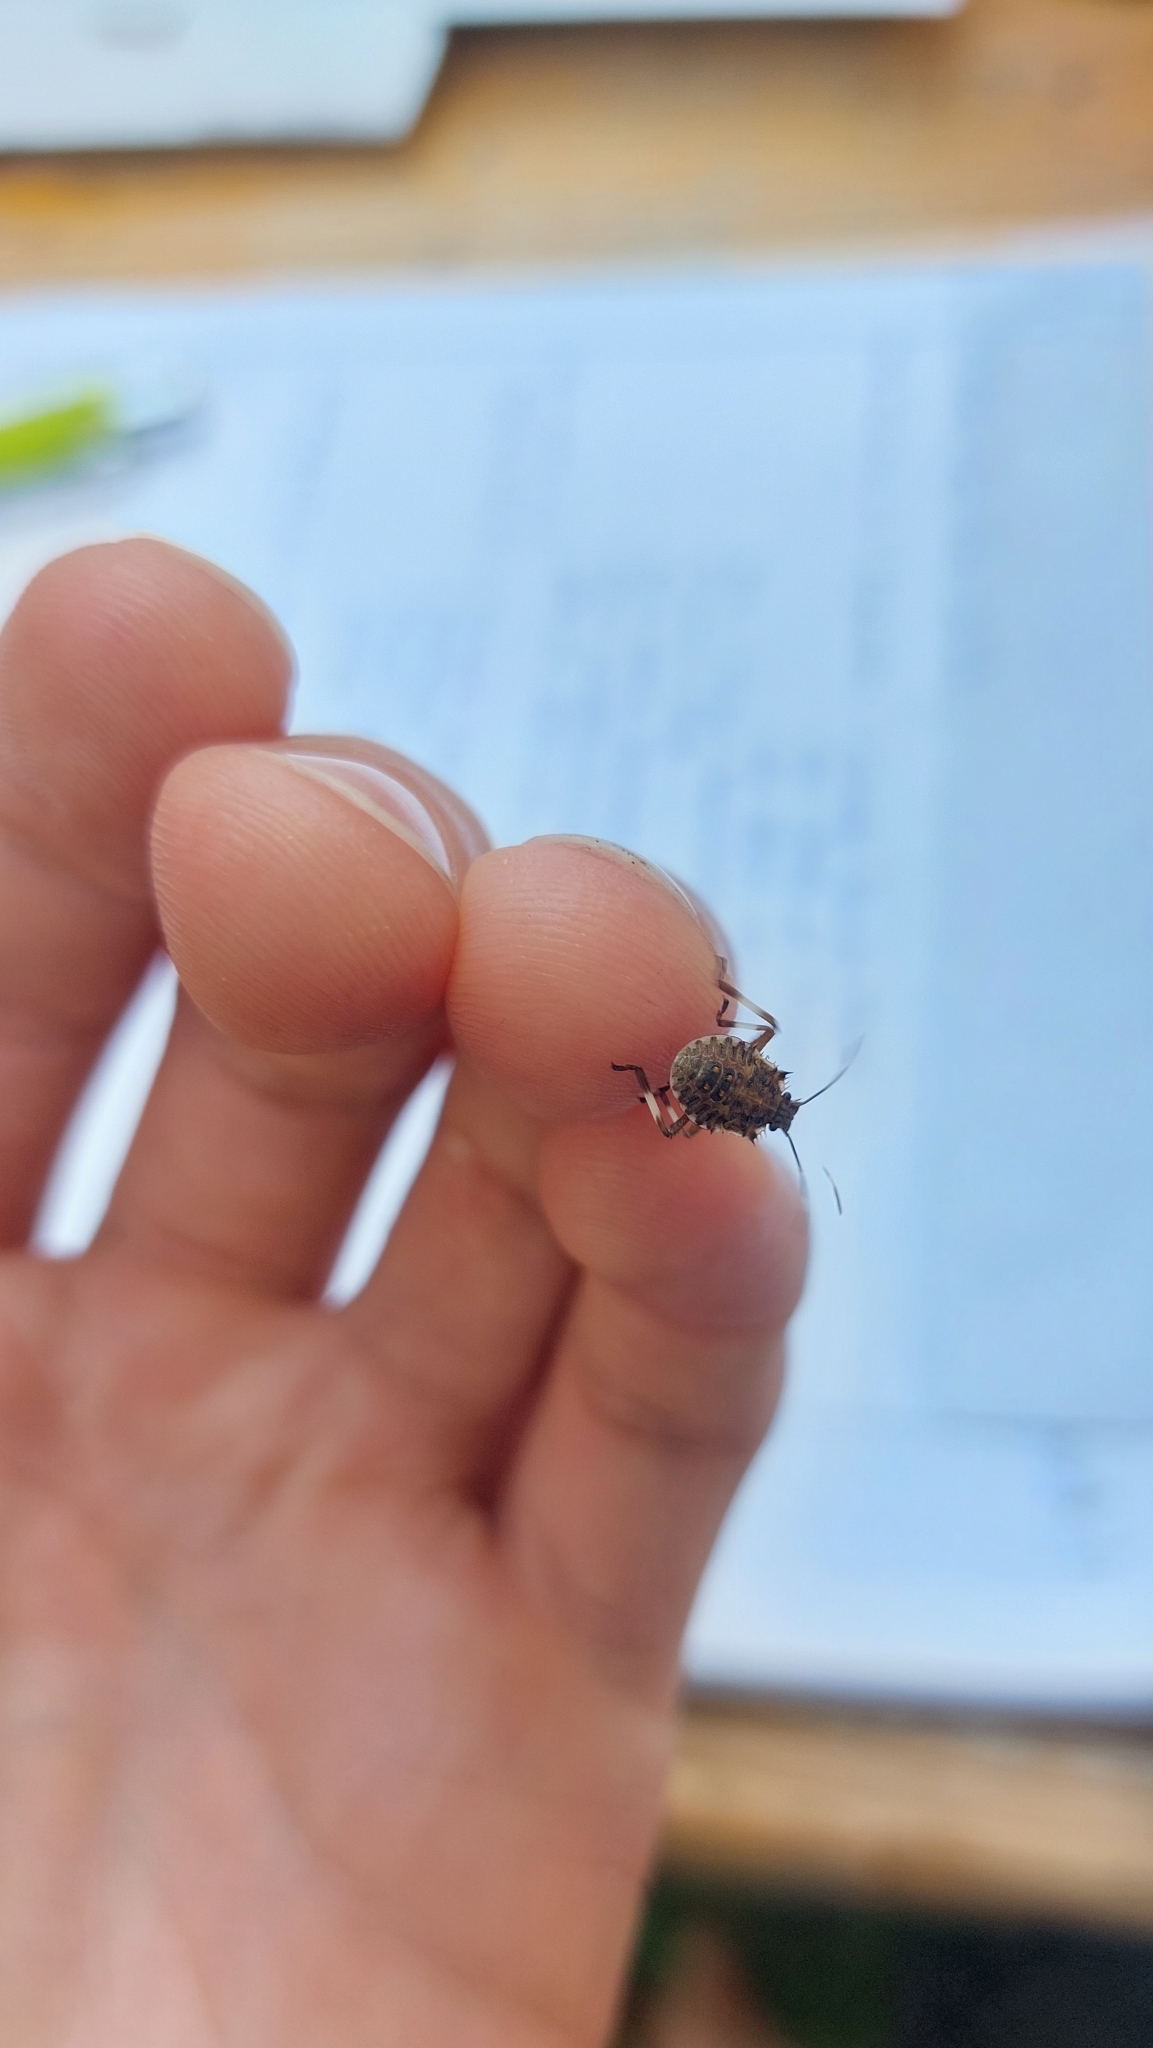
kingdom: Animalia
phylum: Arthropoda
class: Insecta
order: Hemiptera
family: Pentatomidae
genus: Halyomorpha
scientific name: Halyomorpha halys
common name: Brown marmorated stink bug
